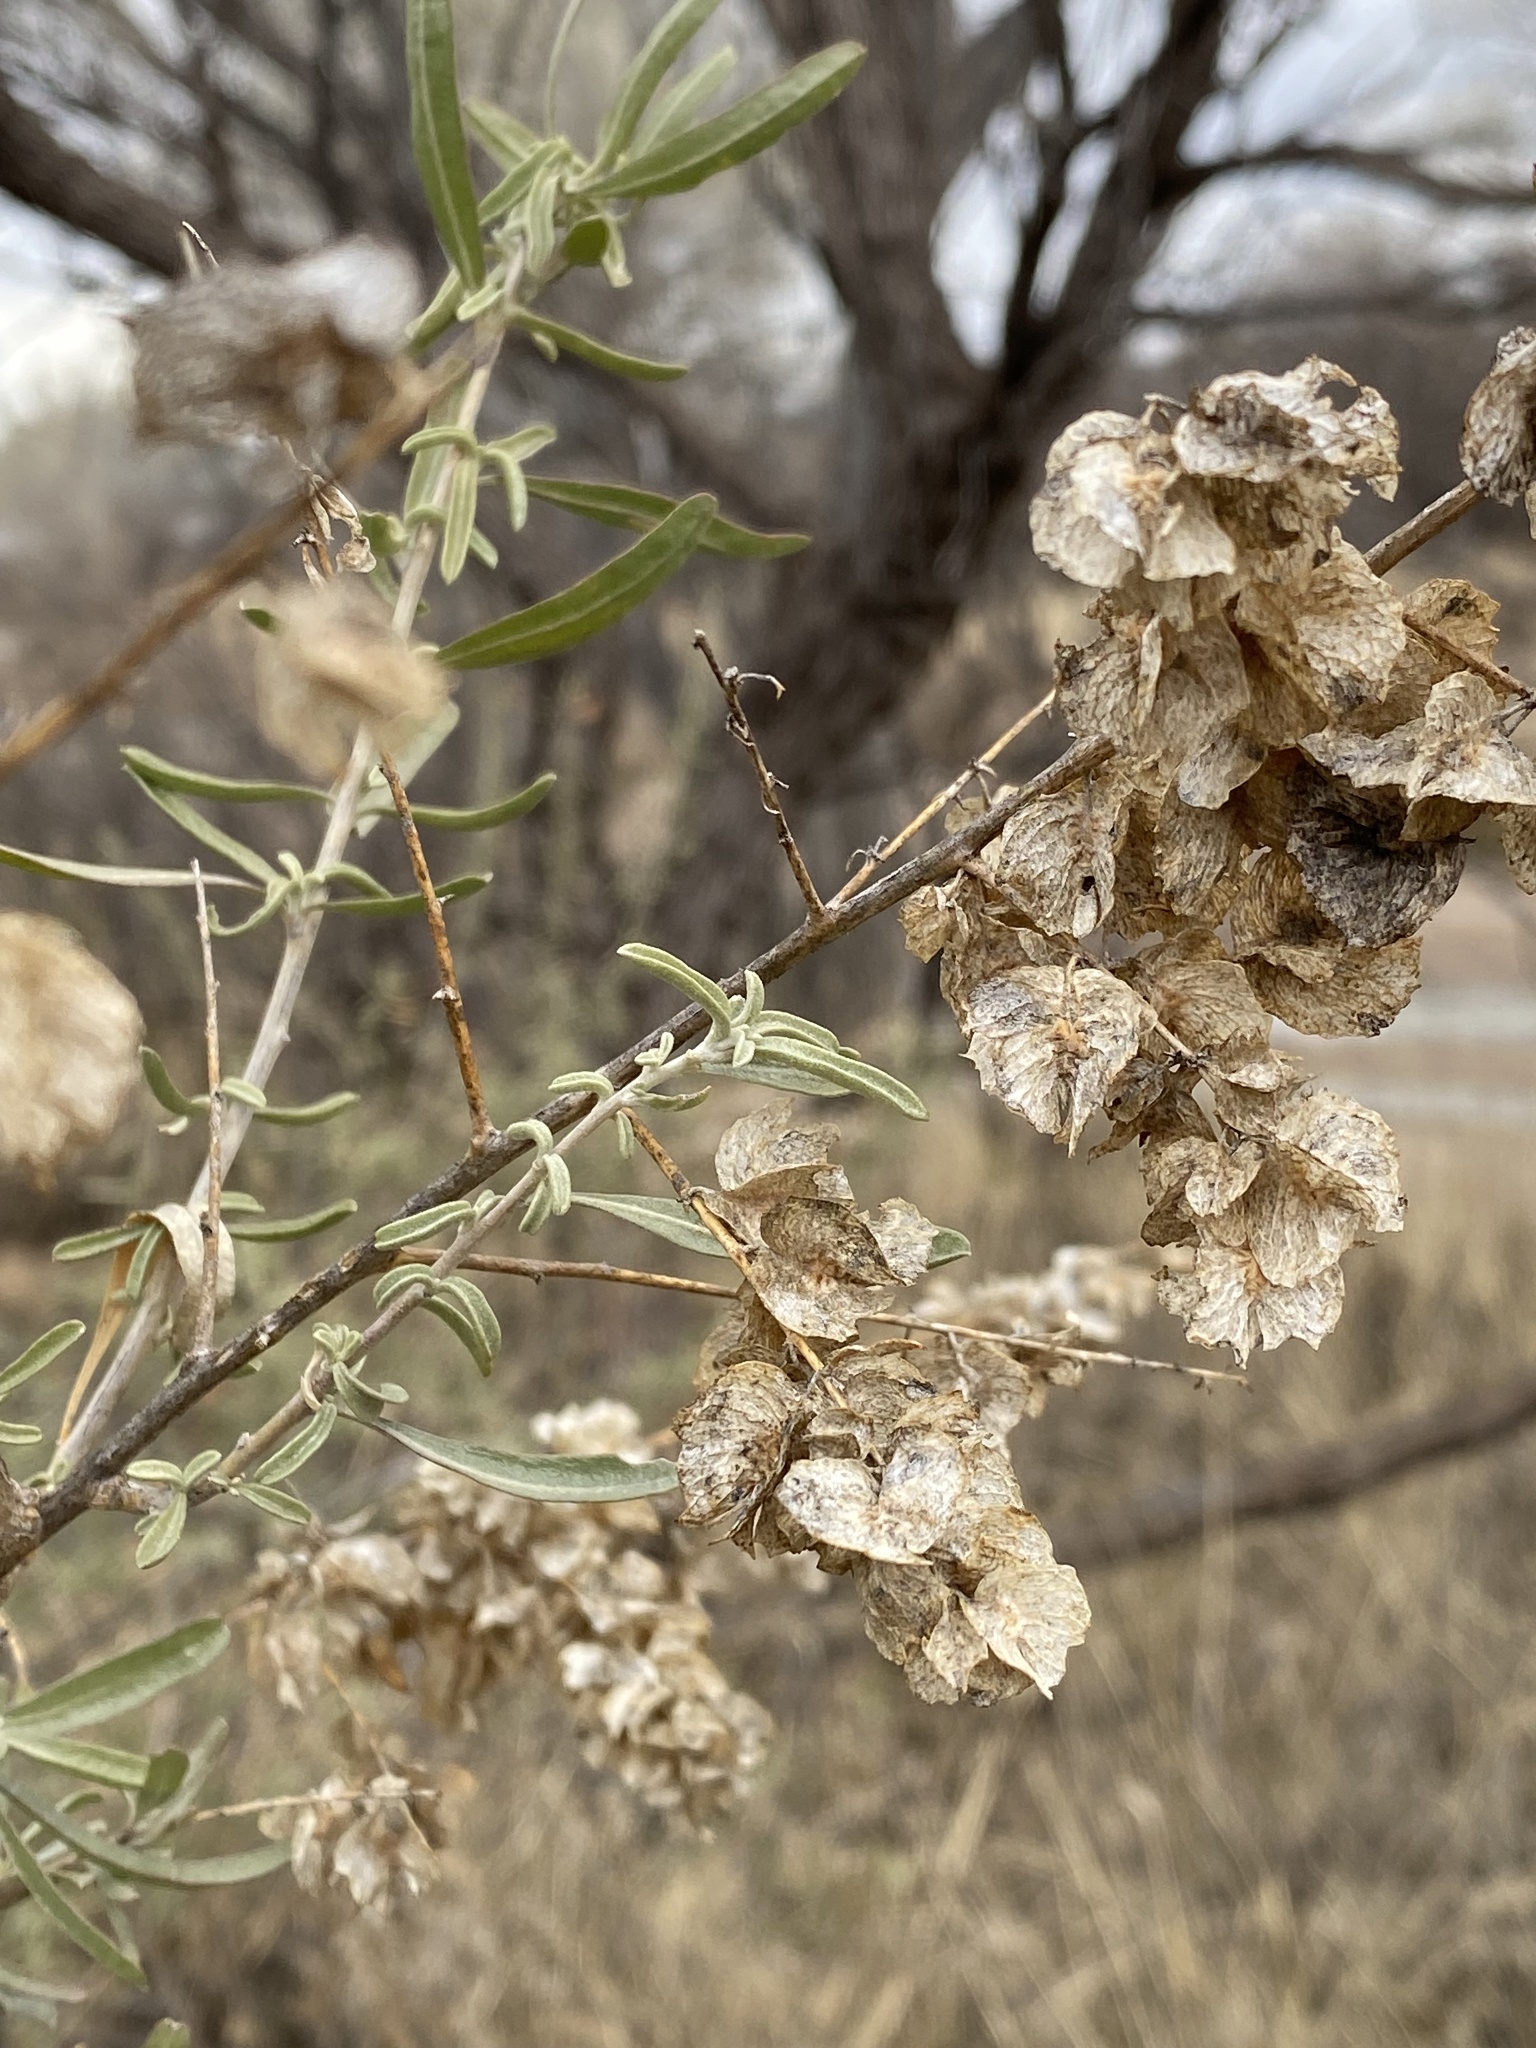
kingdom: Plantae
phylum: Tracheophyta
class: Magnoliopsida
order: Caryophyllales
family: Amaranthaceae
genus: Atriplex
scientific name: Atriplex canescens
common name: Four-wing saltbush
